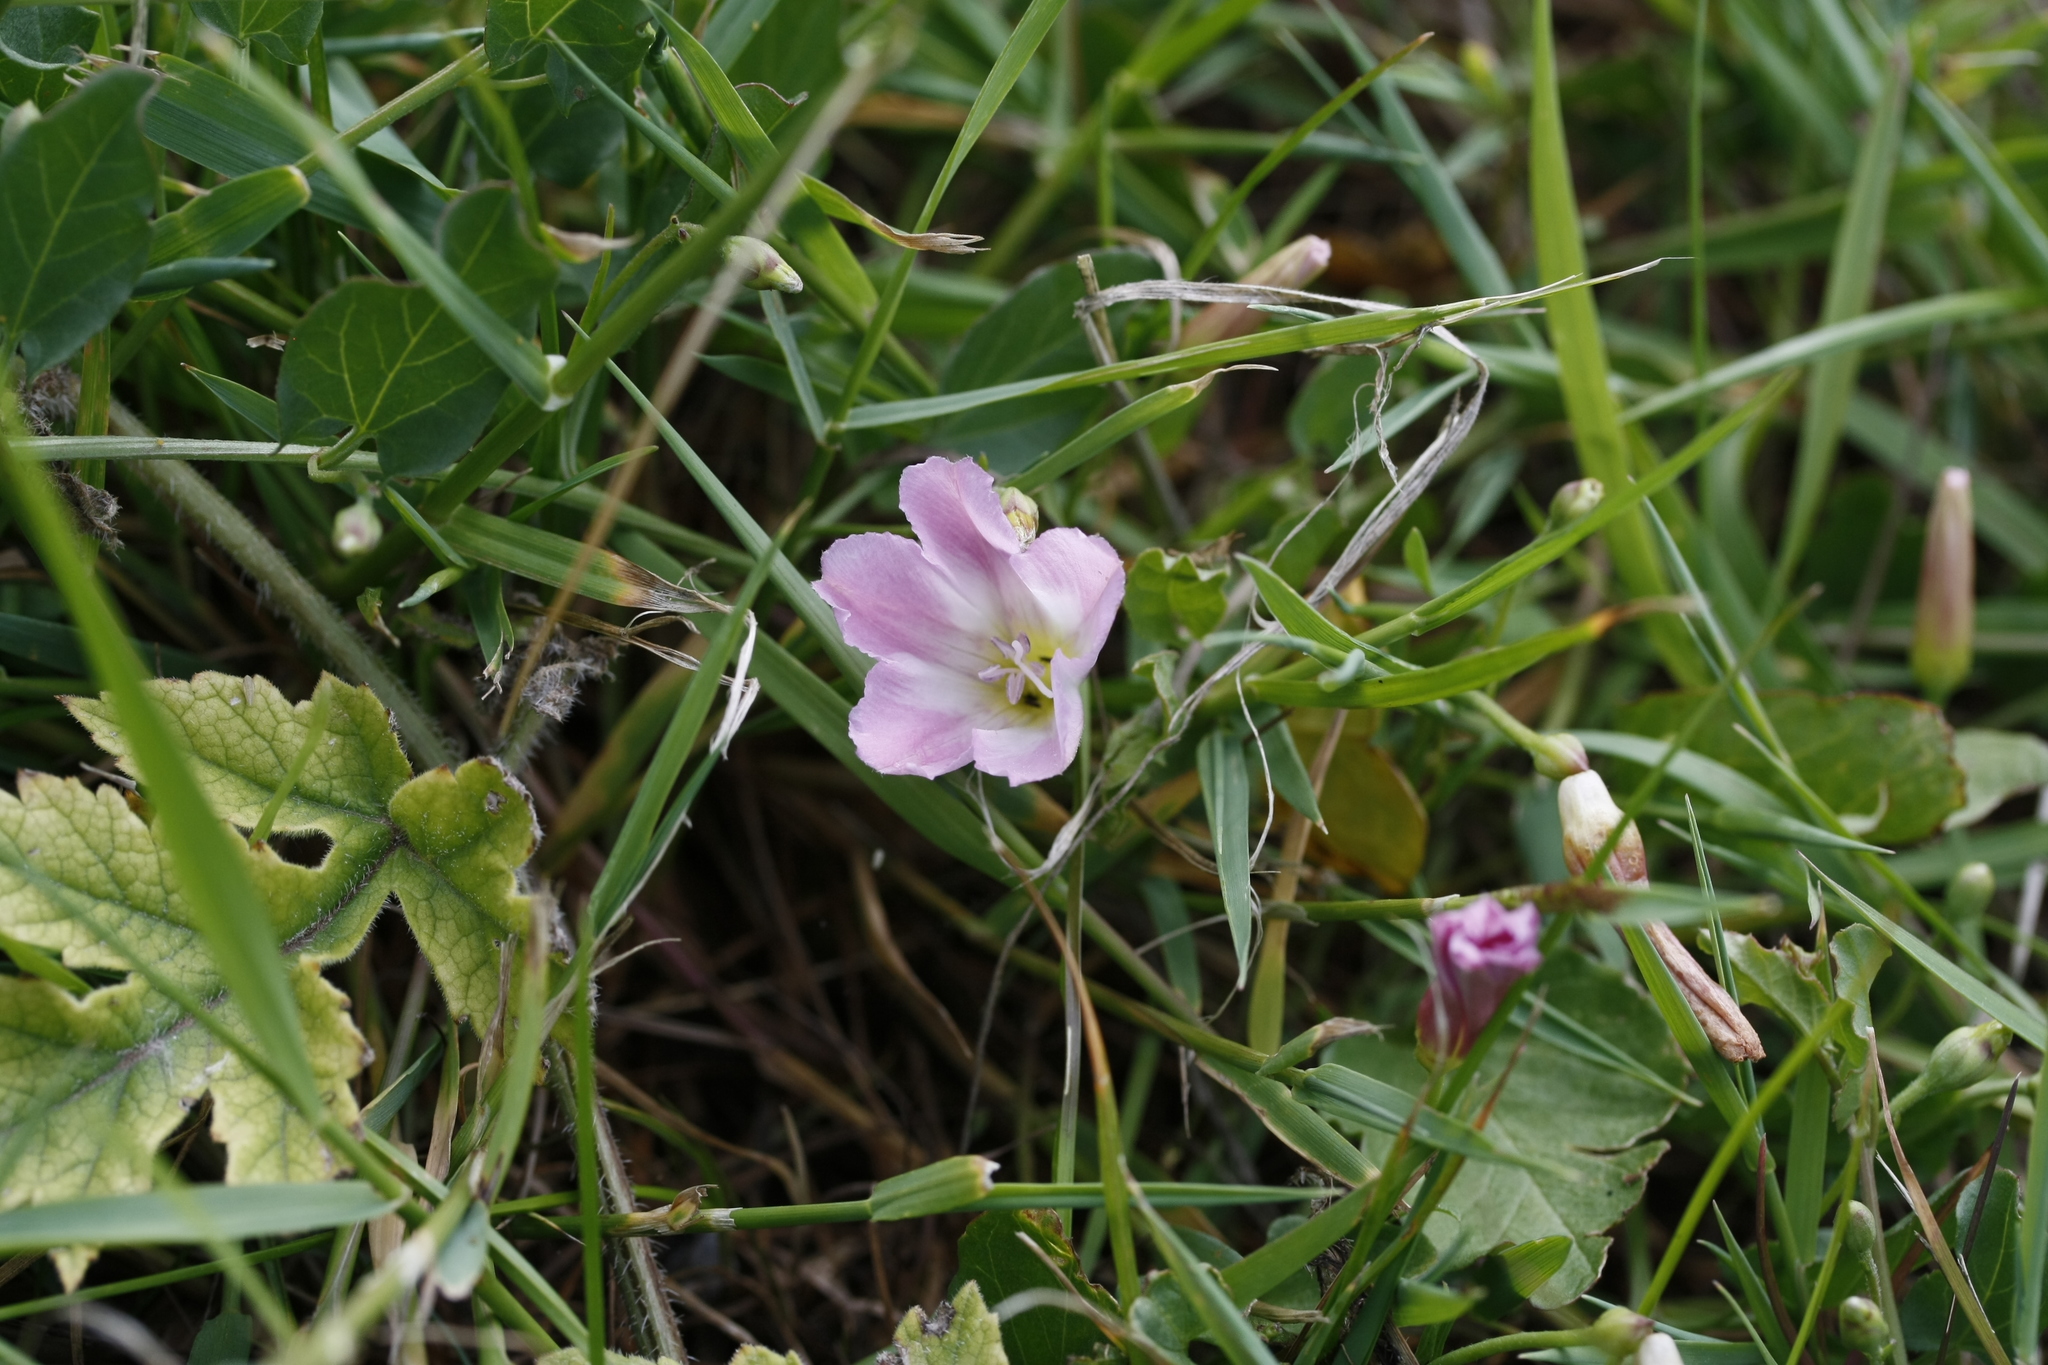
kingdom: Plantae
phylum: Tracheophyta
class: Magnoliopsida
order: Solanales
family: Convolvulaceae
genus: Convolvulus
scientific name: Convolvulus arvensis
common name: Field bindweed
